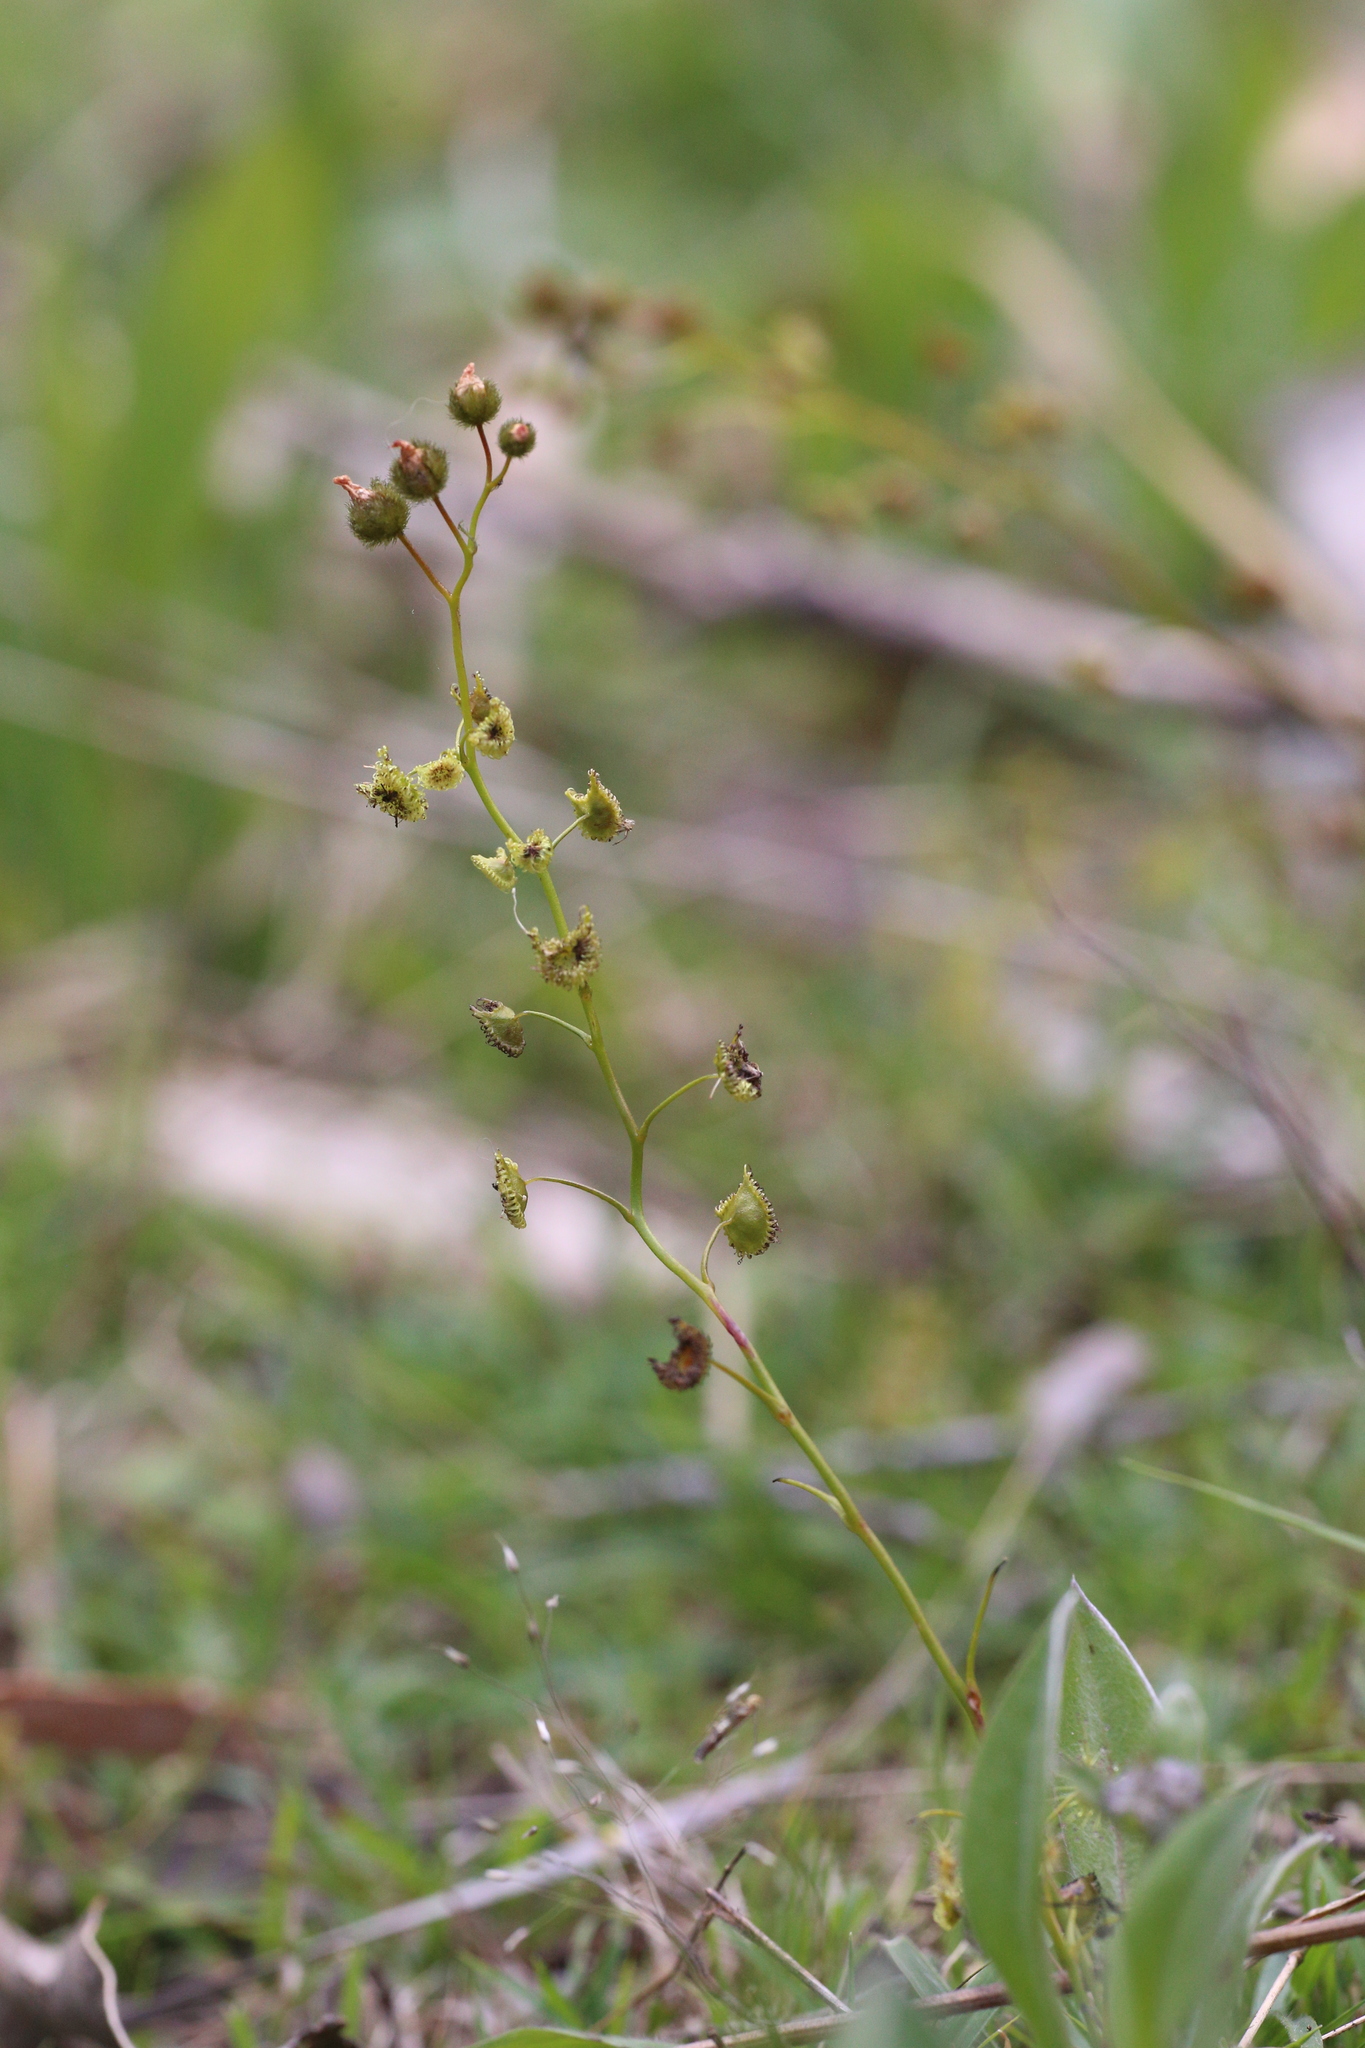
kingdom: Plantae
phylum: Tracheophyta
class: Magnoliopsida
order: Caryophyllales
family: Droseraceae
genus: Drosera
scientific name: Drosera gunniana
